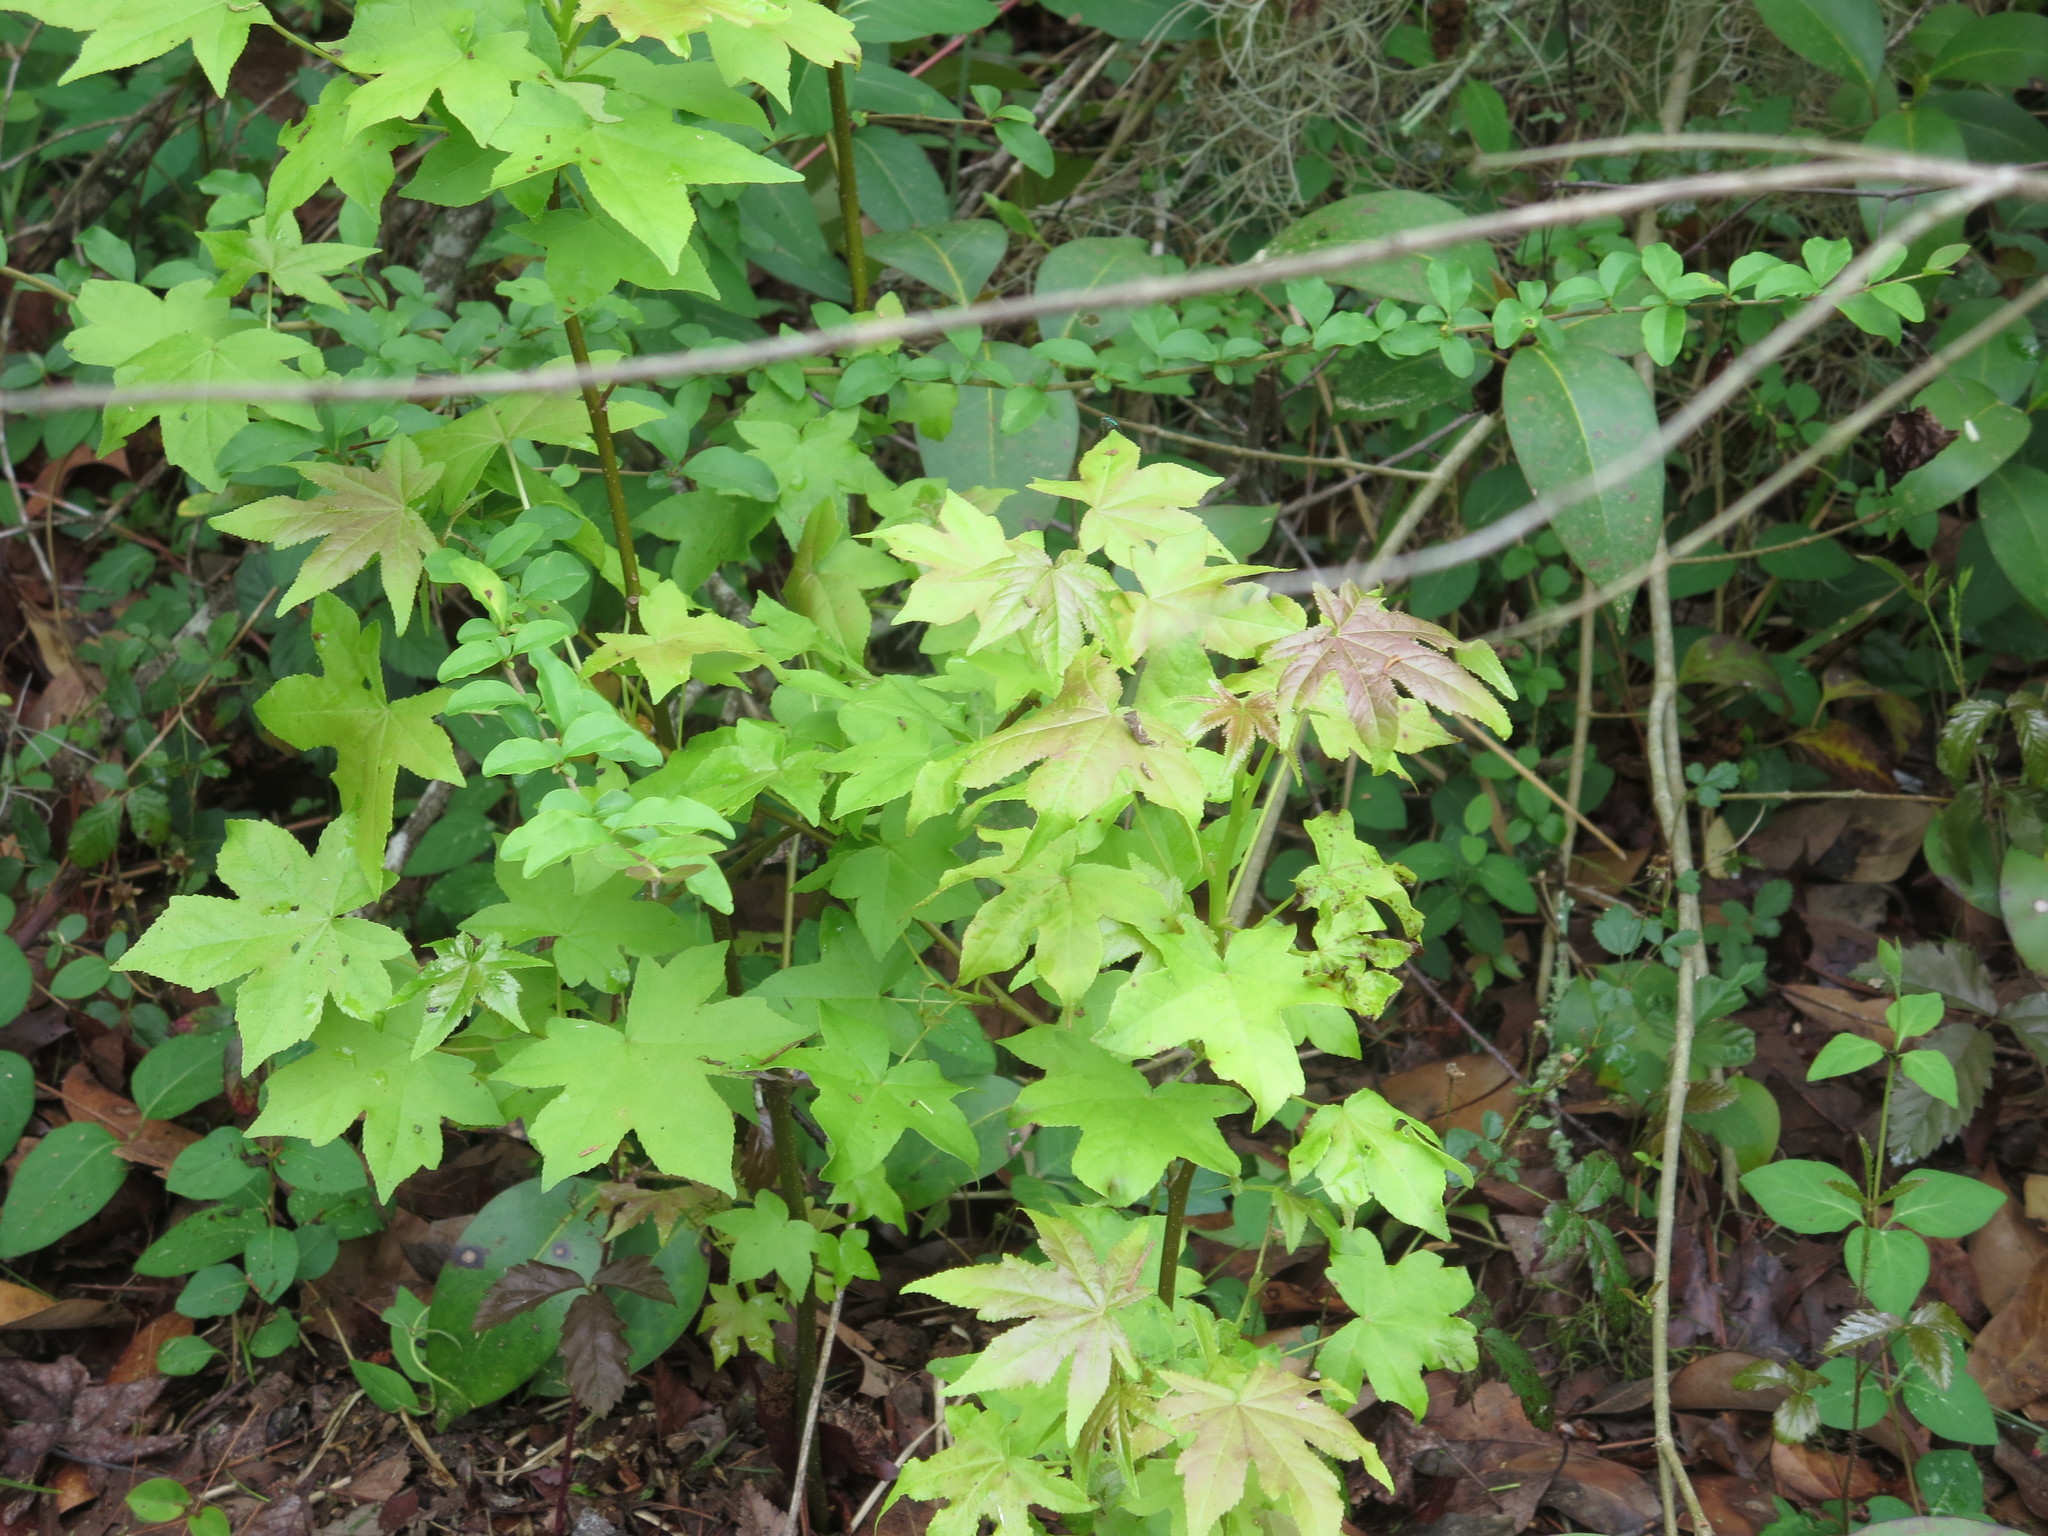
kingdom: Plantae
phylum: Tracheophyta
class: Magnoliopsida
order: Saxifragales
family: Altingiaceae
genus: Liquidambar
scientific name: Liquidambar styraciflua
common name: Sweet gum
